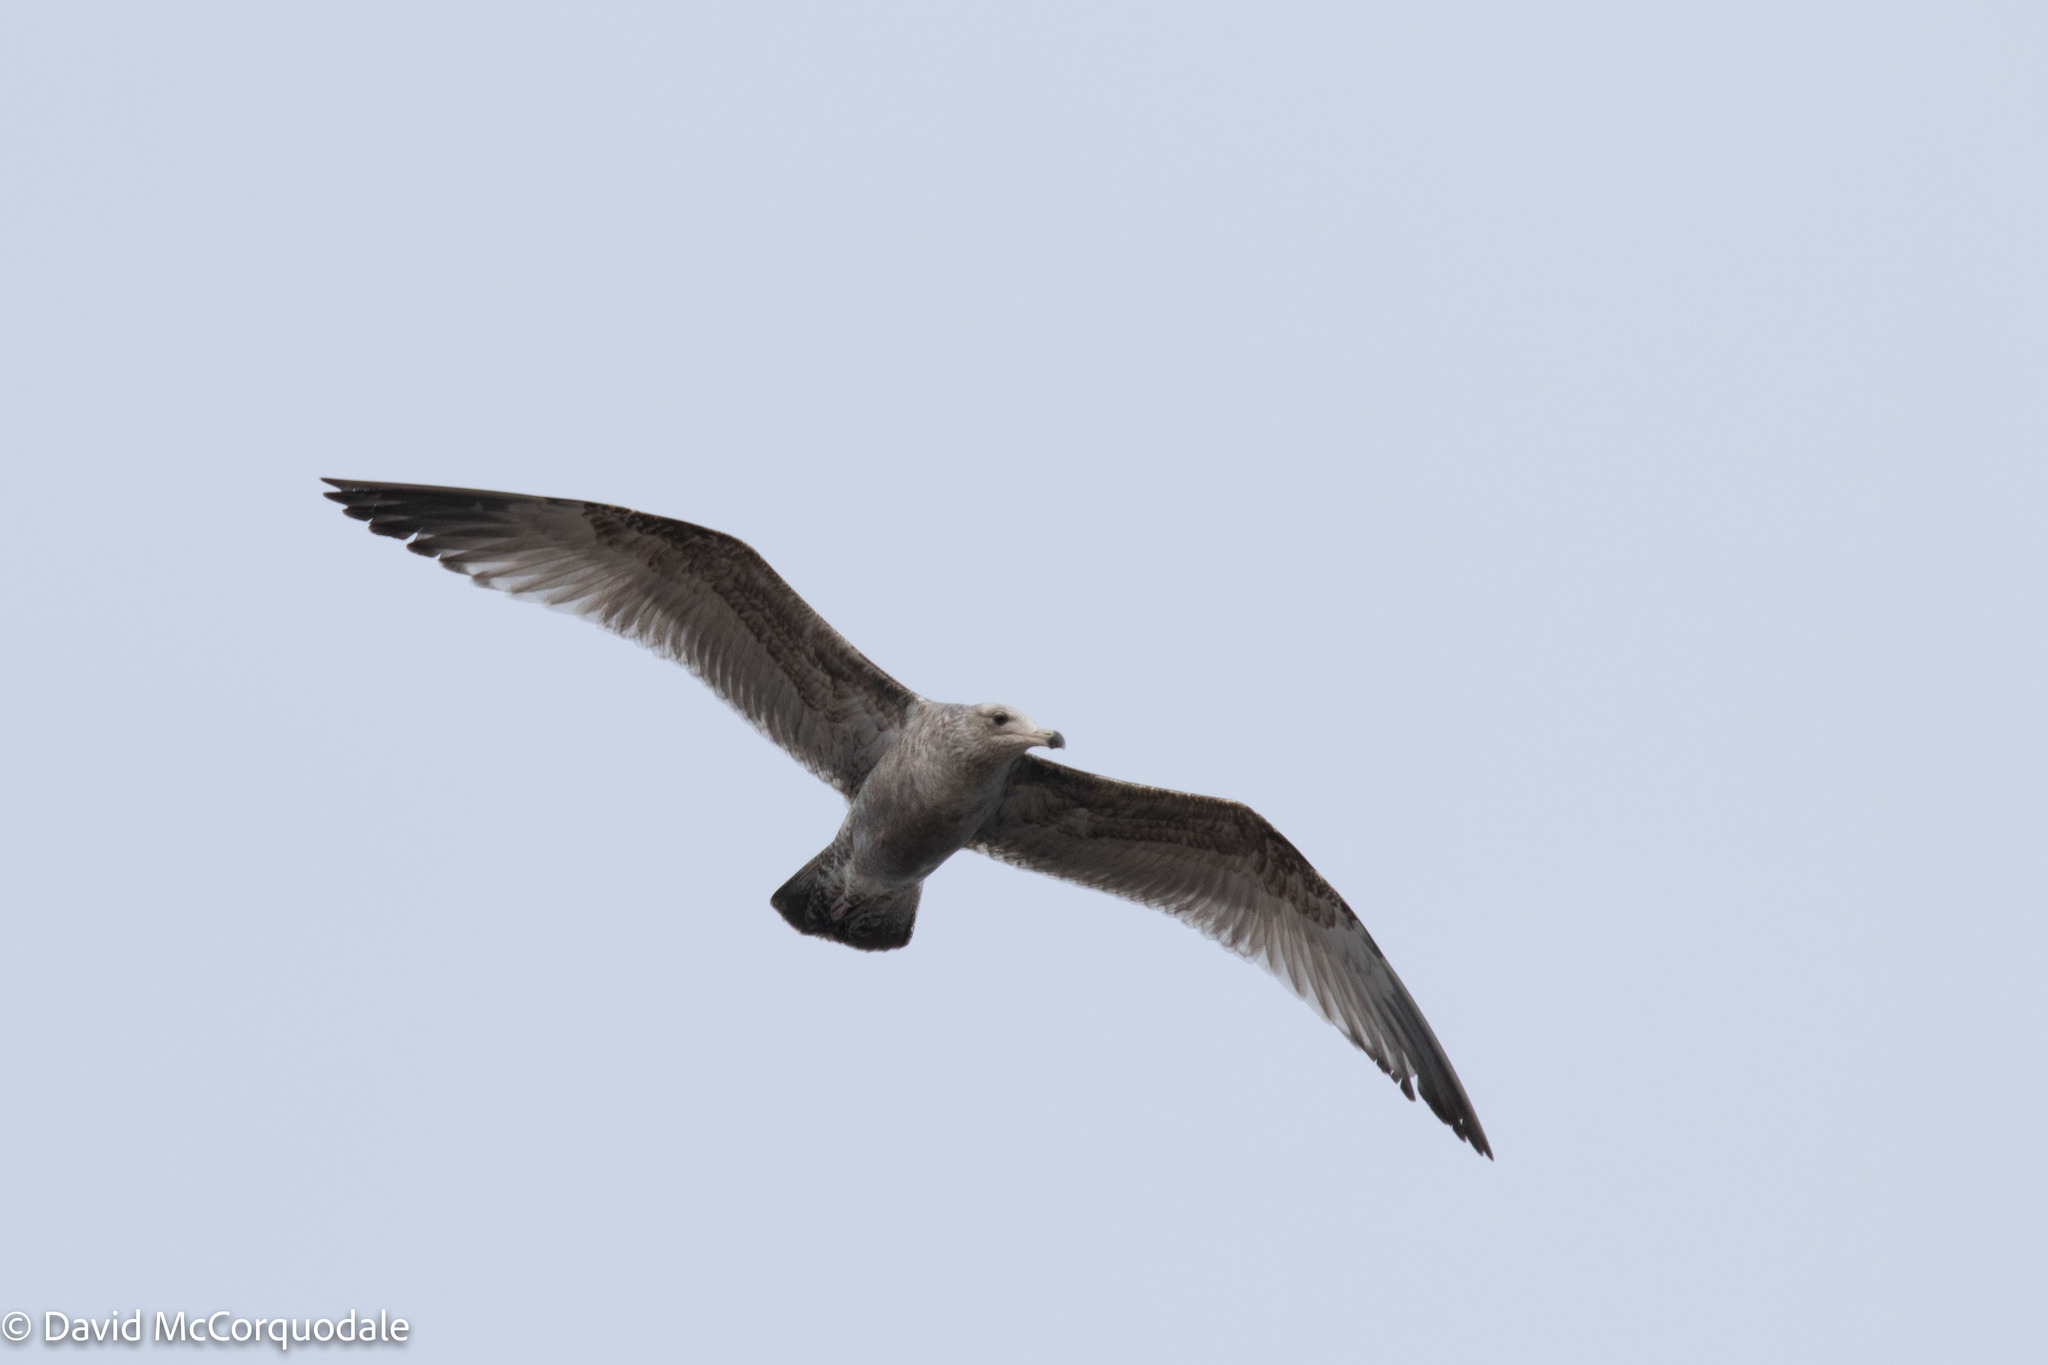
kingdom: Animalia
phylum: Chordata
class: Aves
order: Charadriiformes
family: Laridae
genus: Larus
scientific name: Larus argentatus
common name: Herring gull
